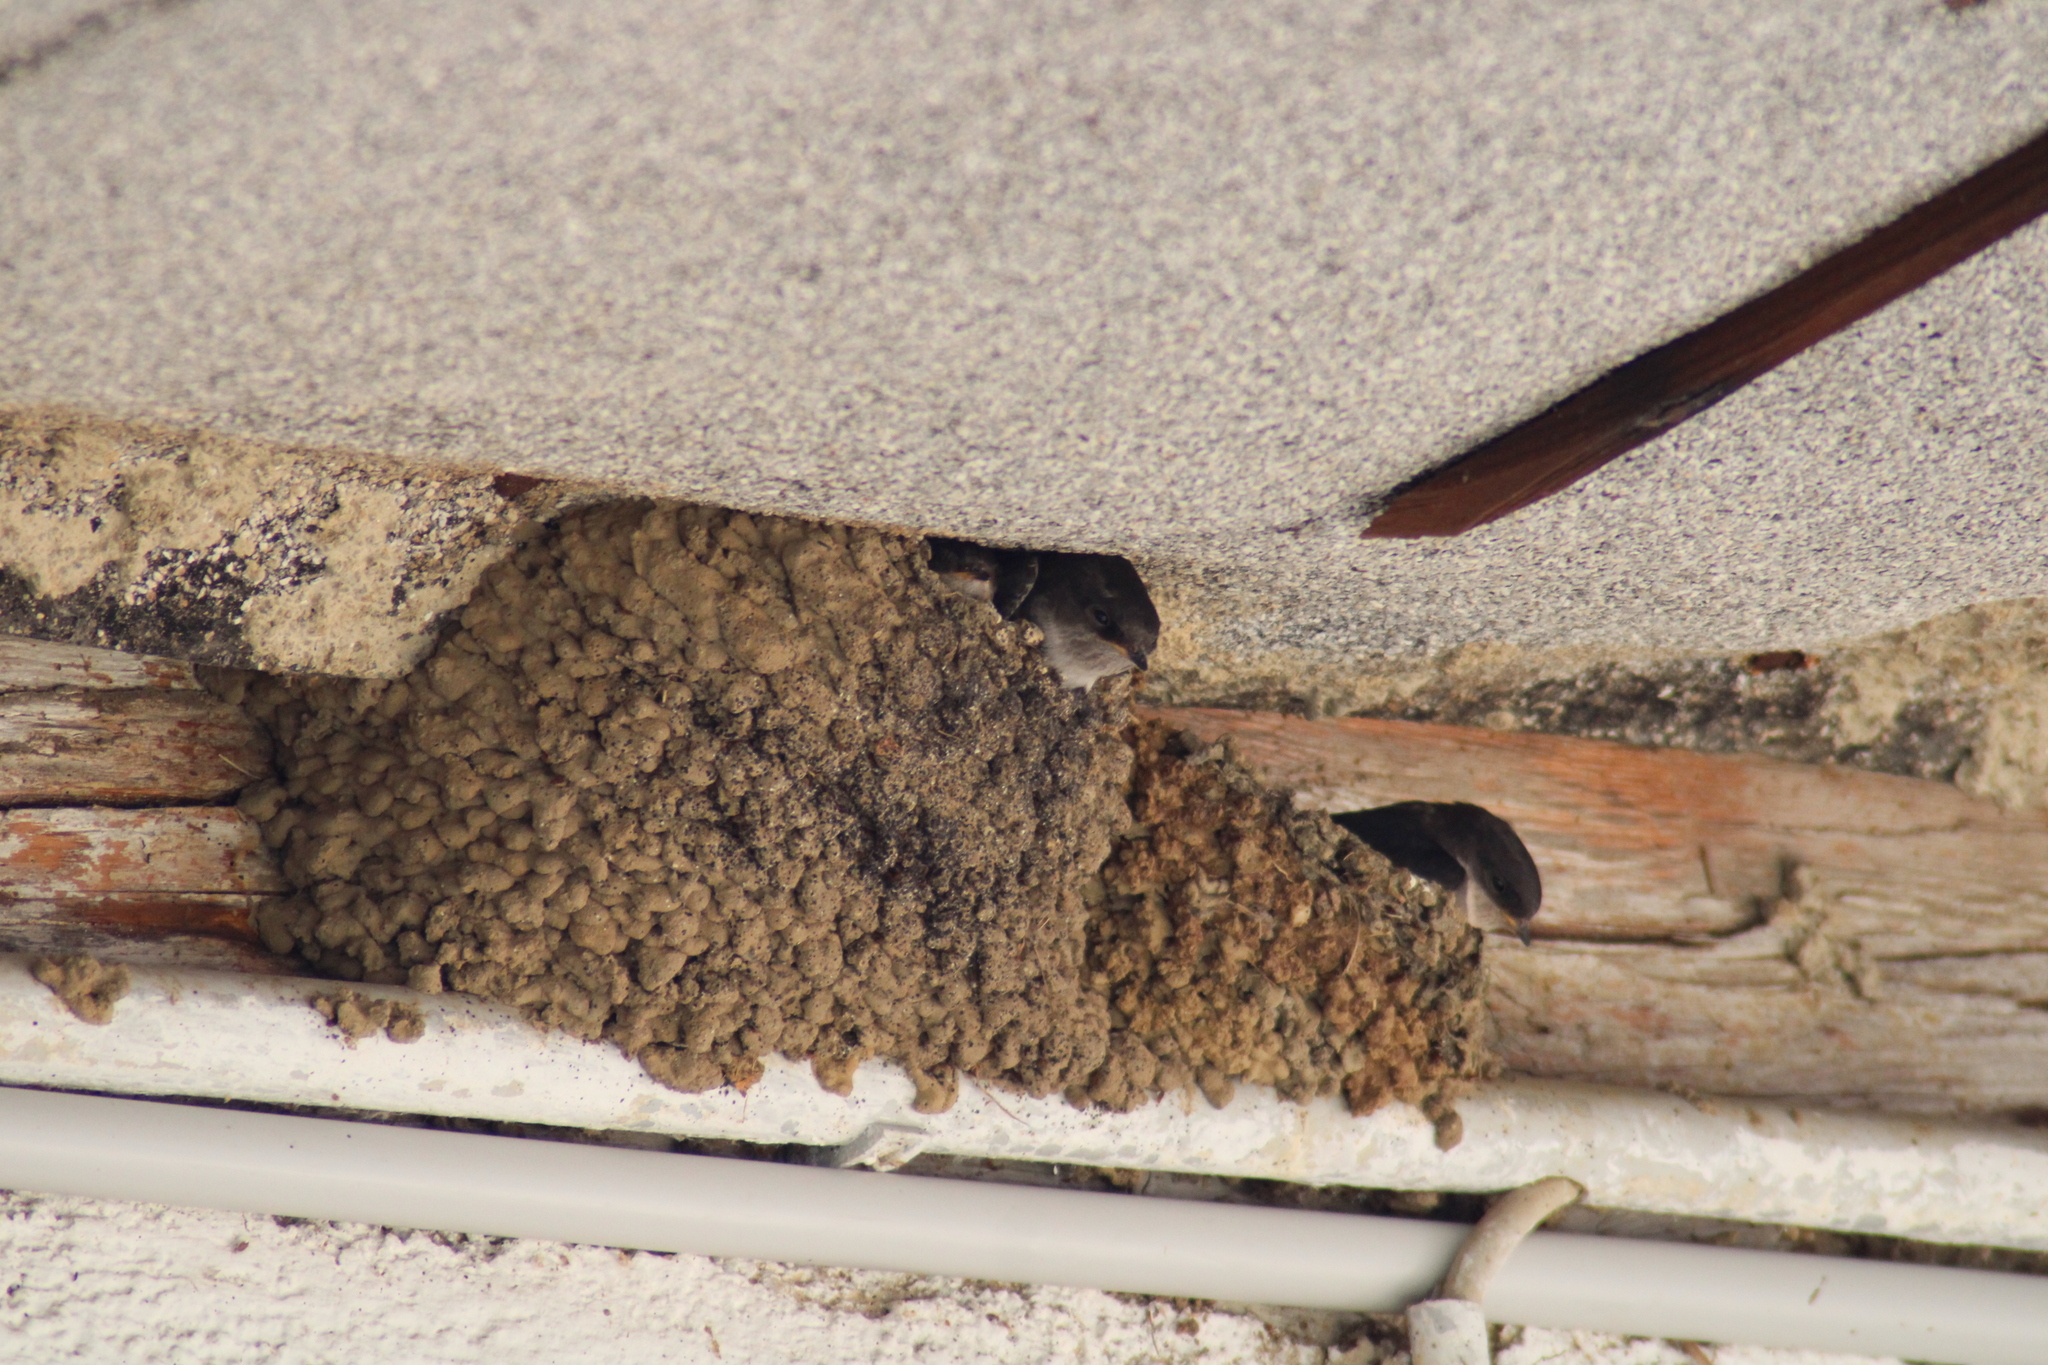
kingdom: Animalia
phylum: Chordata
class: Aves
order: Passeriformes
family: Hirundinidae
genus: Delichon
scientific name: Delichon urbicum
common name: Common house martin
